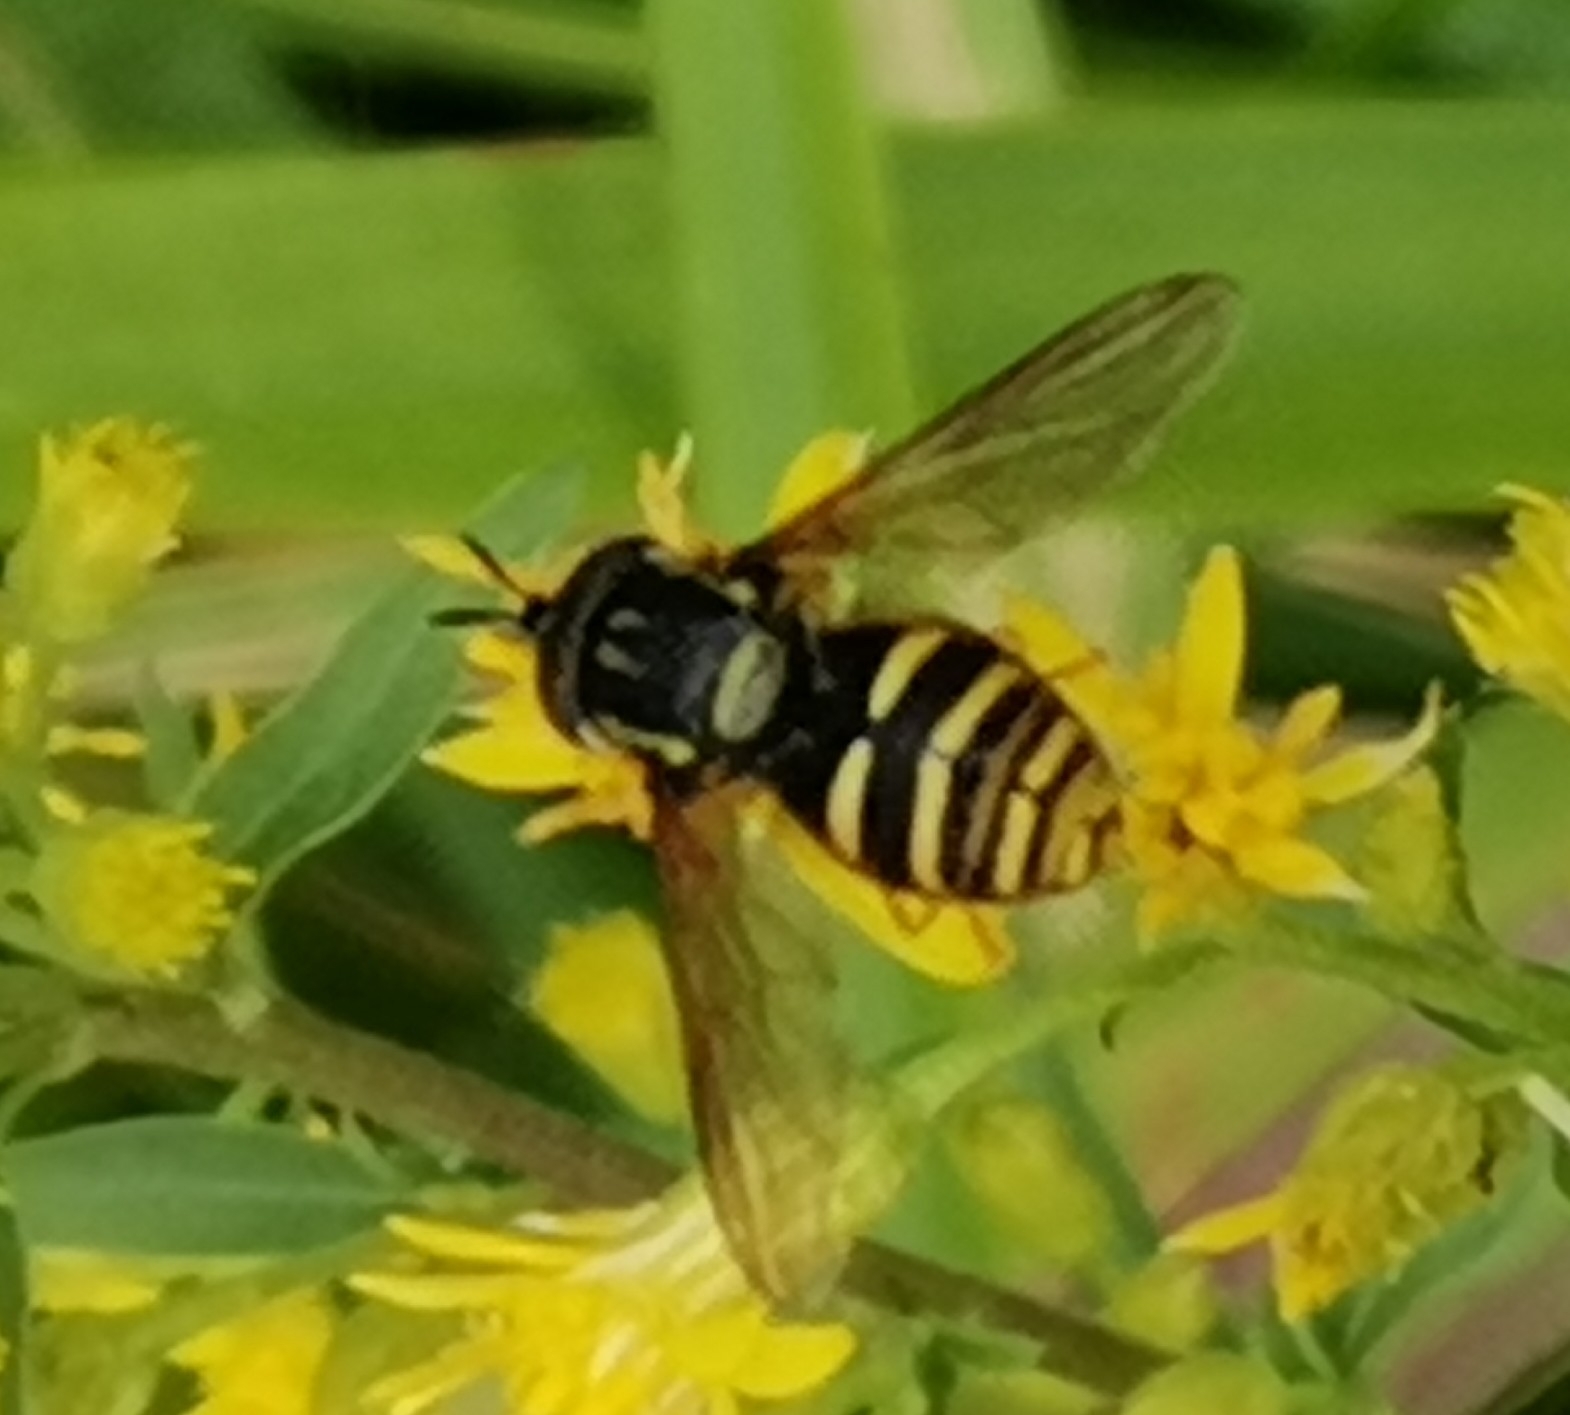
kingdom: Animalia
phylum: Arthropoda
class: Insecta
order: Diptera
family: Syrphidae
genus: Chrysotoxum
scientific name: Chrysotoxum arcuatum
